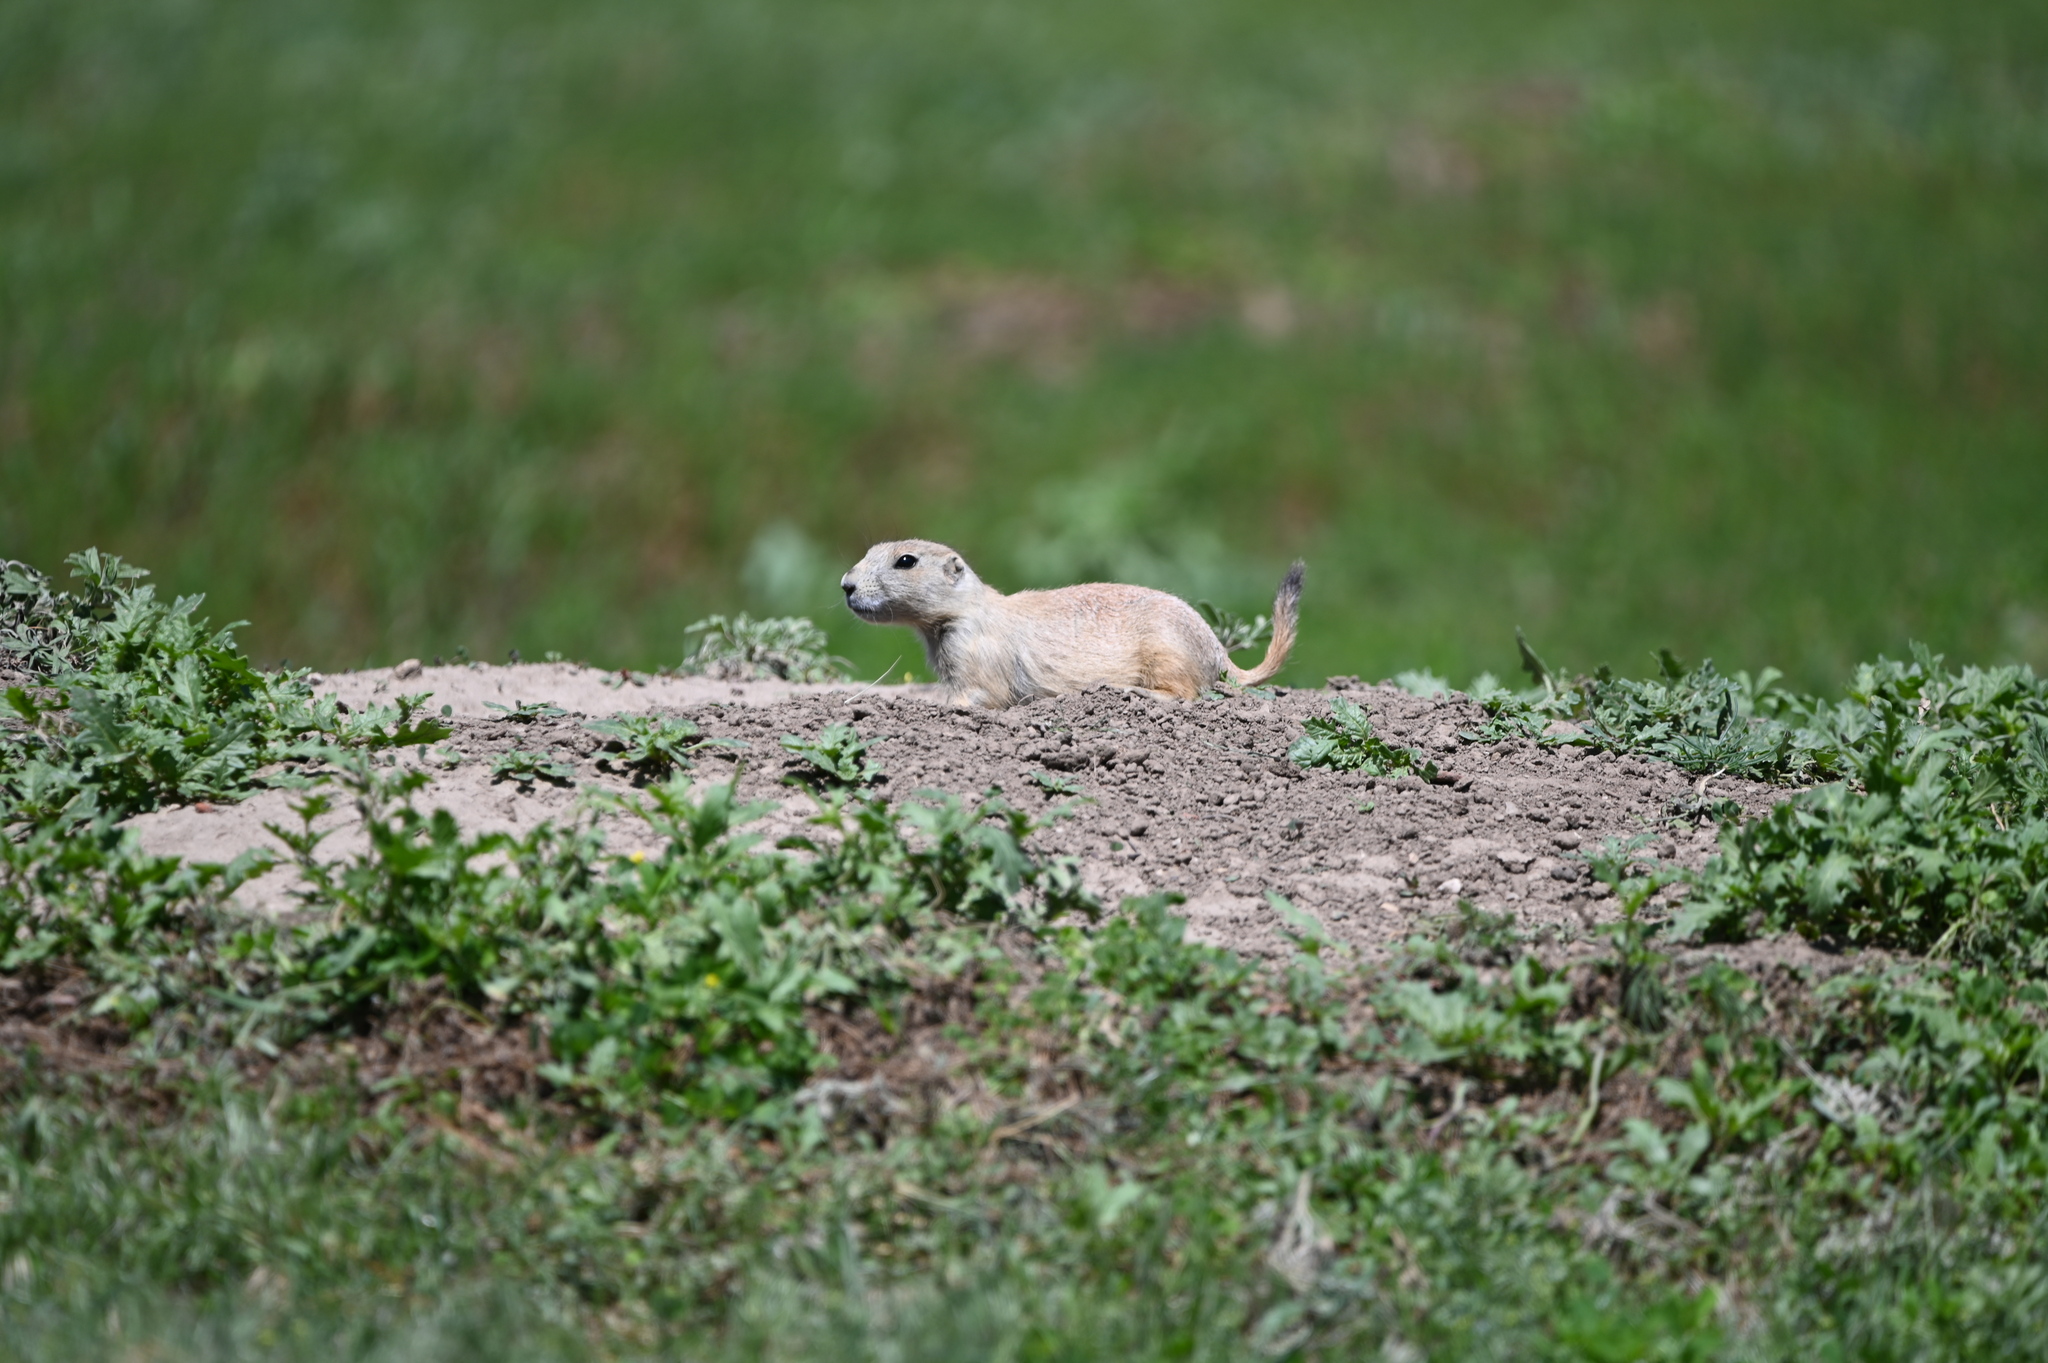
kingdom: Animalia
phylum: Chordata
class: Mammalia
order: Rodentia
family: Sciuridae
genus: Cynomys
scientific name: Cynomys ludovicianus
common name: Black-tailed prairie dog
